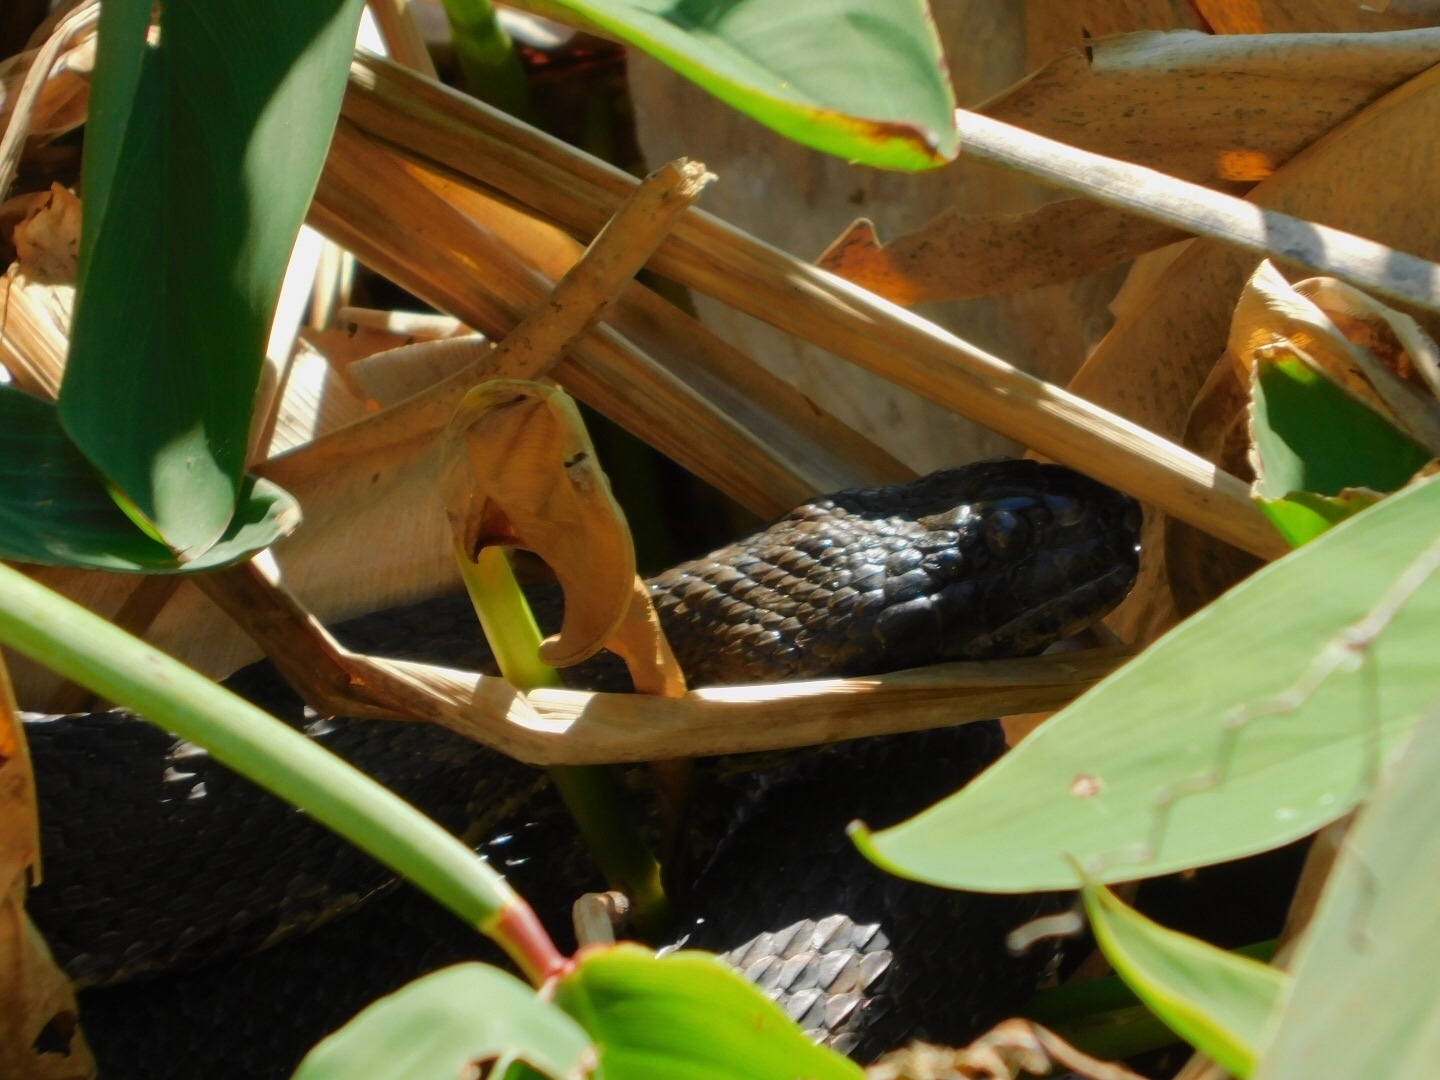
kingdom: Animalia
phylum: Chordata
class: Squamata
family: Colubridae
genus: Nerodia
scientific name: Nerodia taxispilota
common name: Brown water snake
